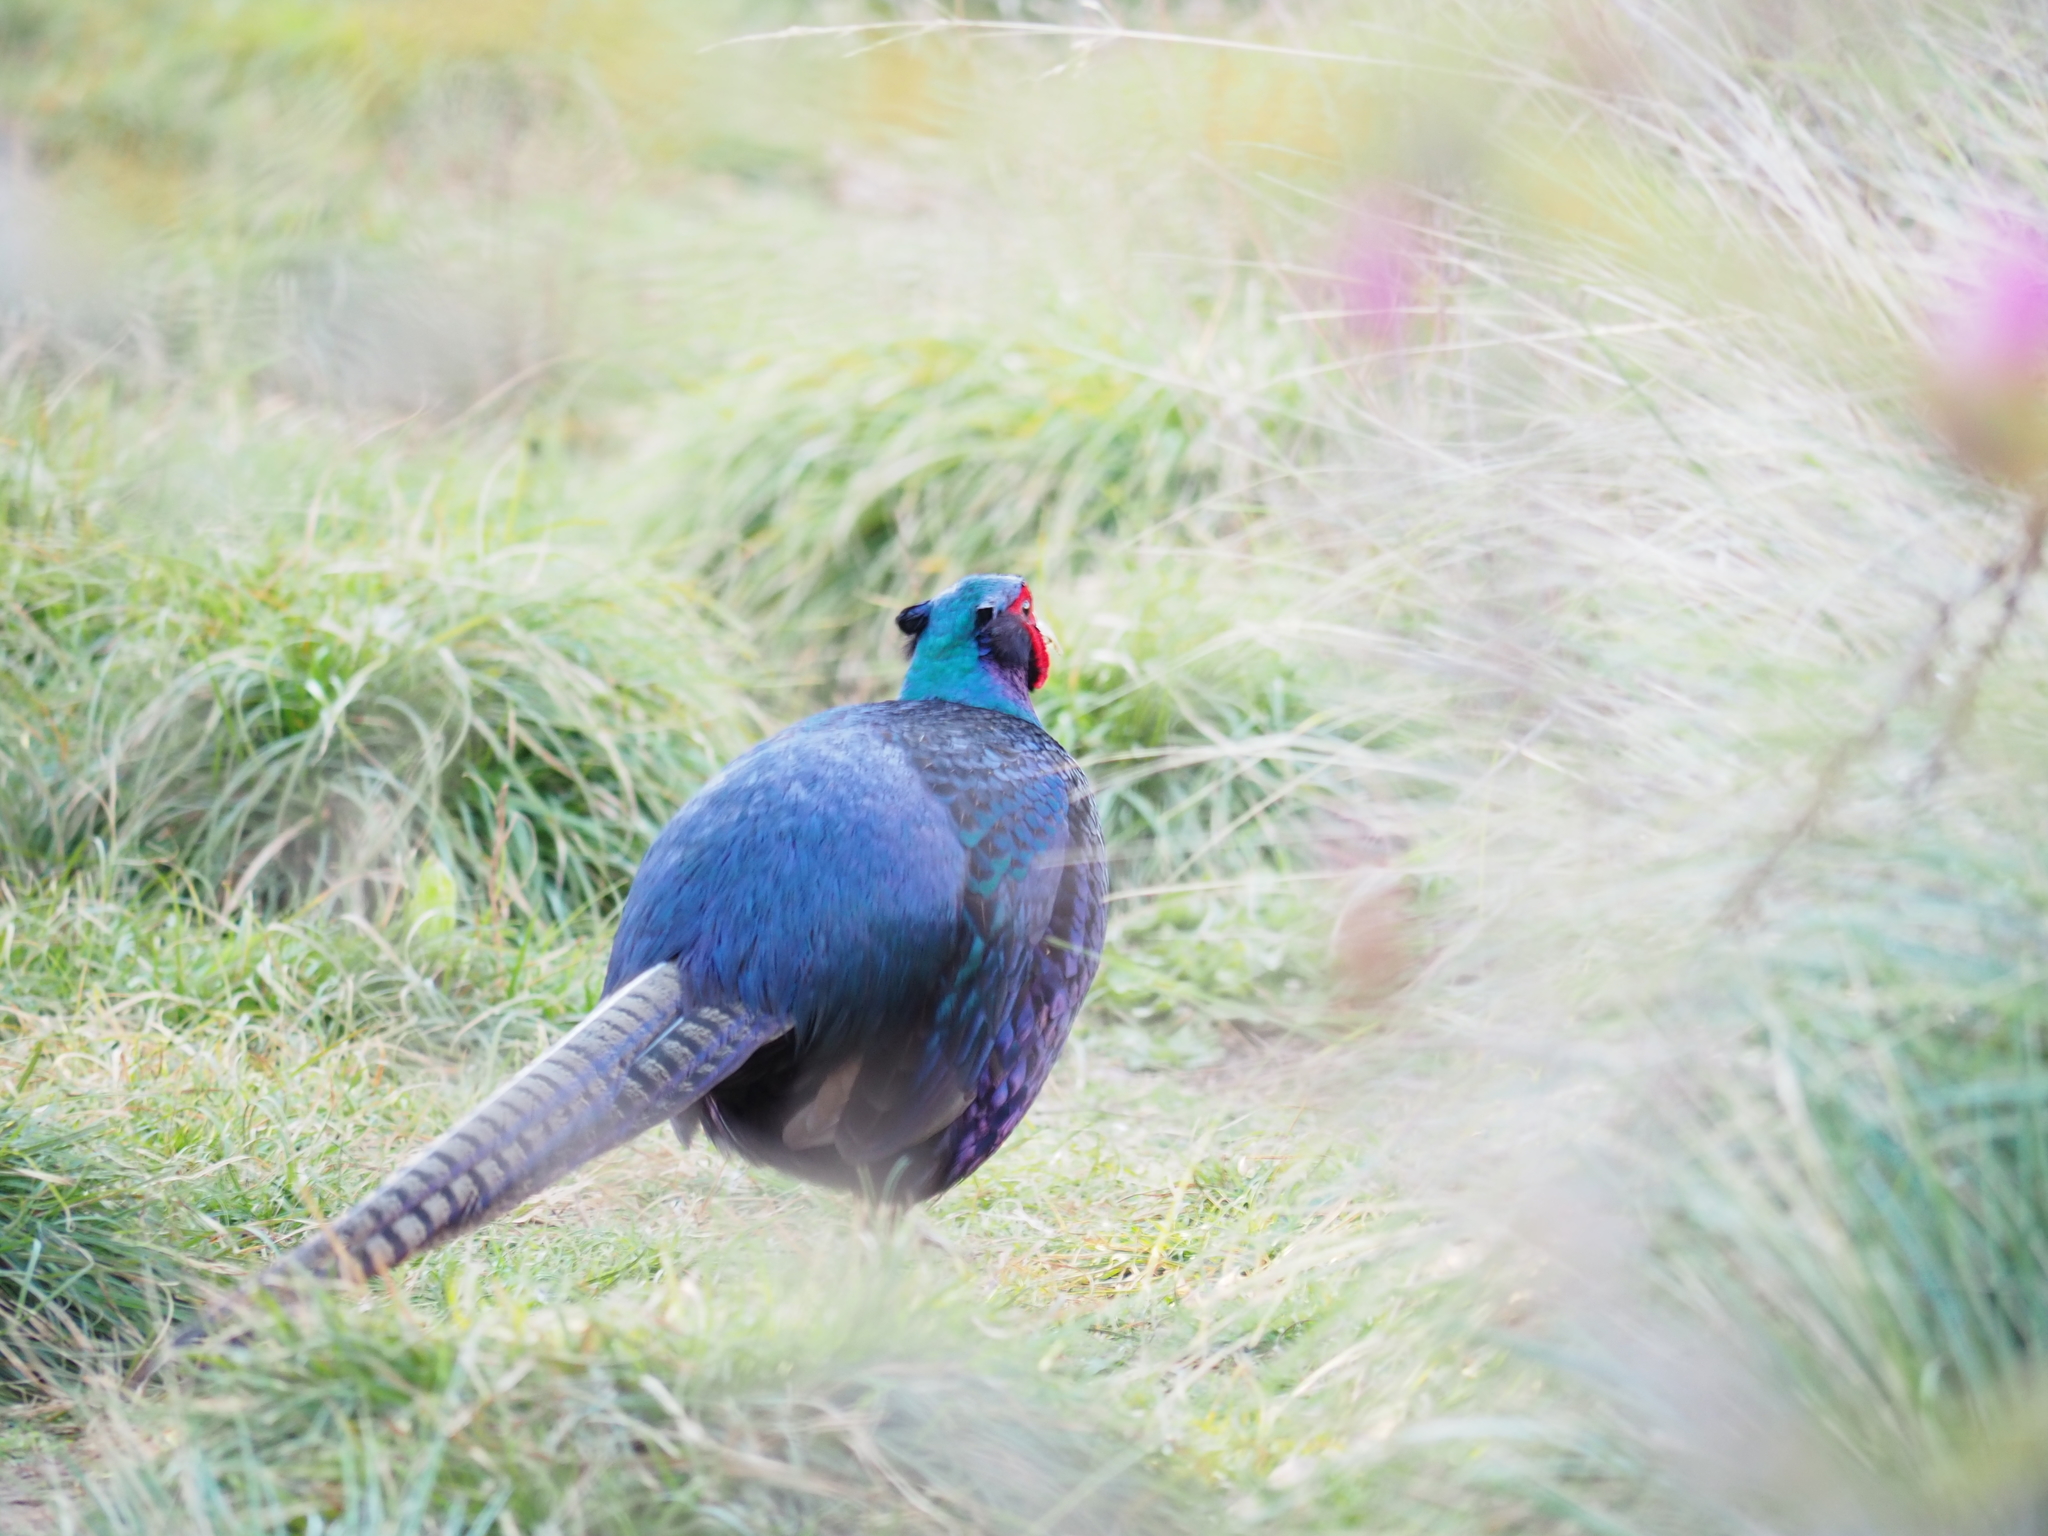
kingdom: Animalia
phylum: Chordata
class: Aves
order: Galliformes
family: Phasianidae
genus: Phasianus
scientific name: Phasianus colchicus
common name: Common pheasant
